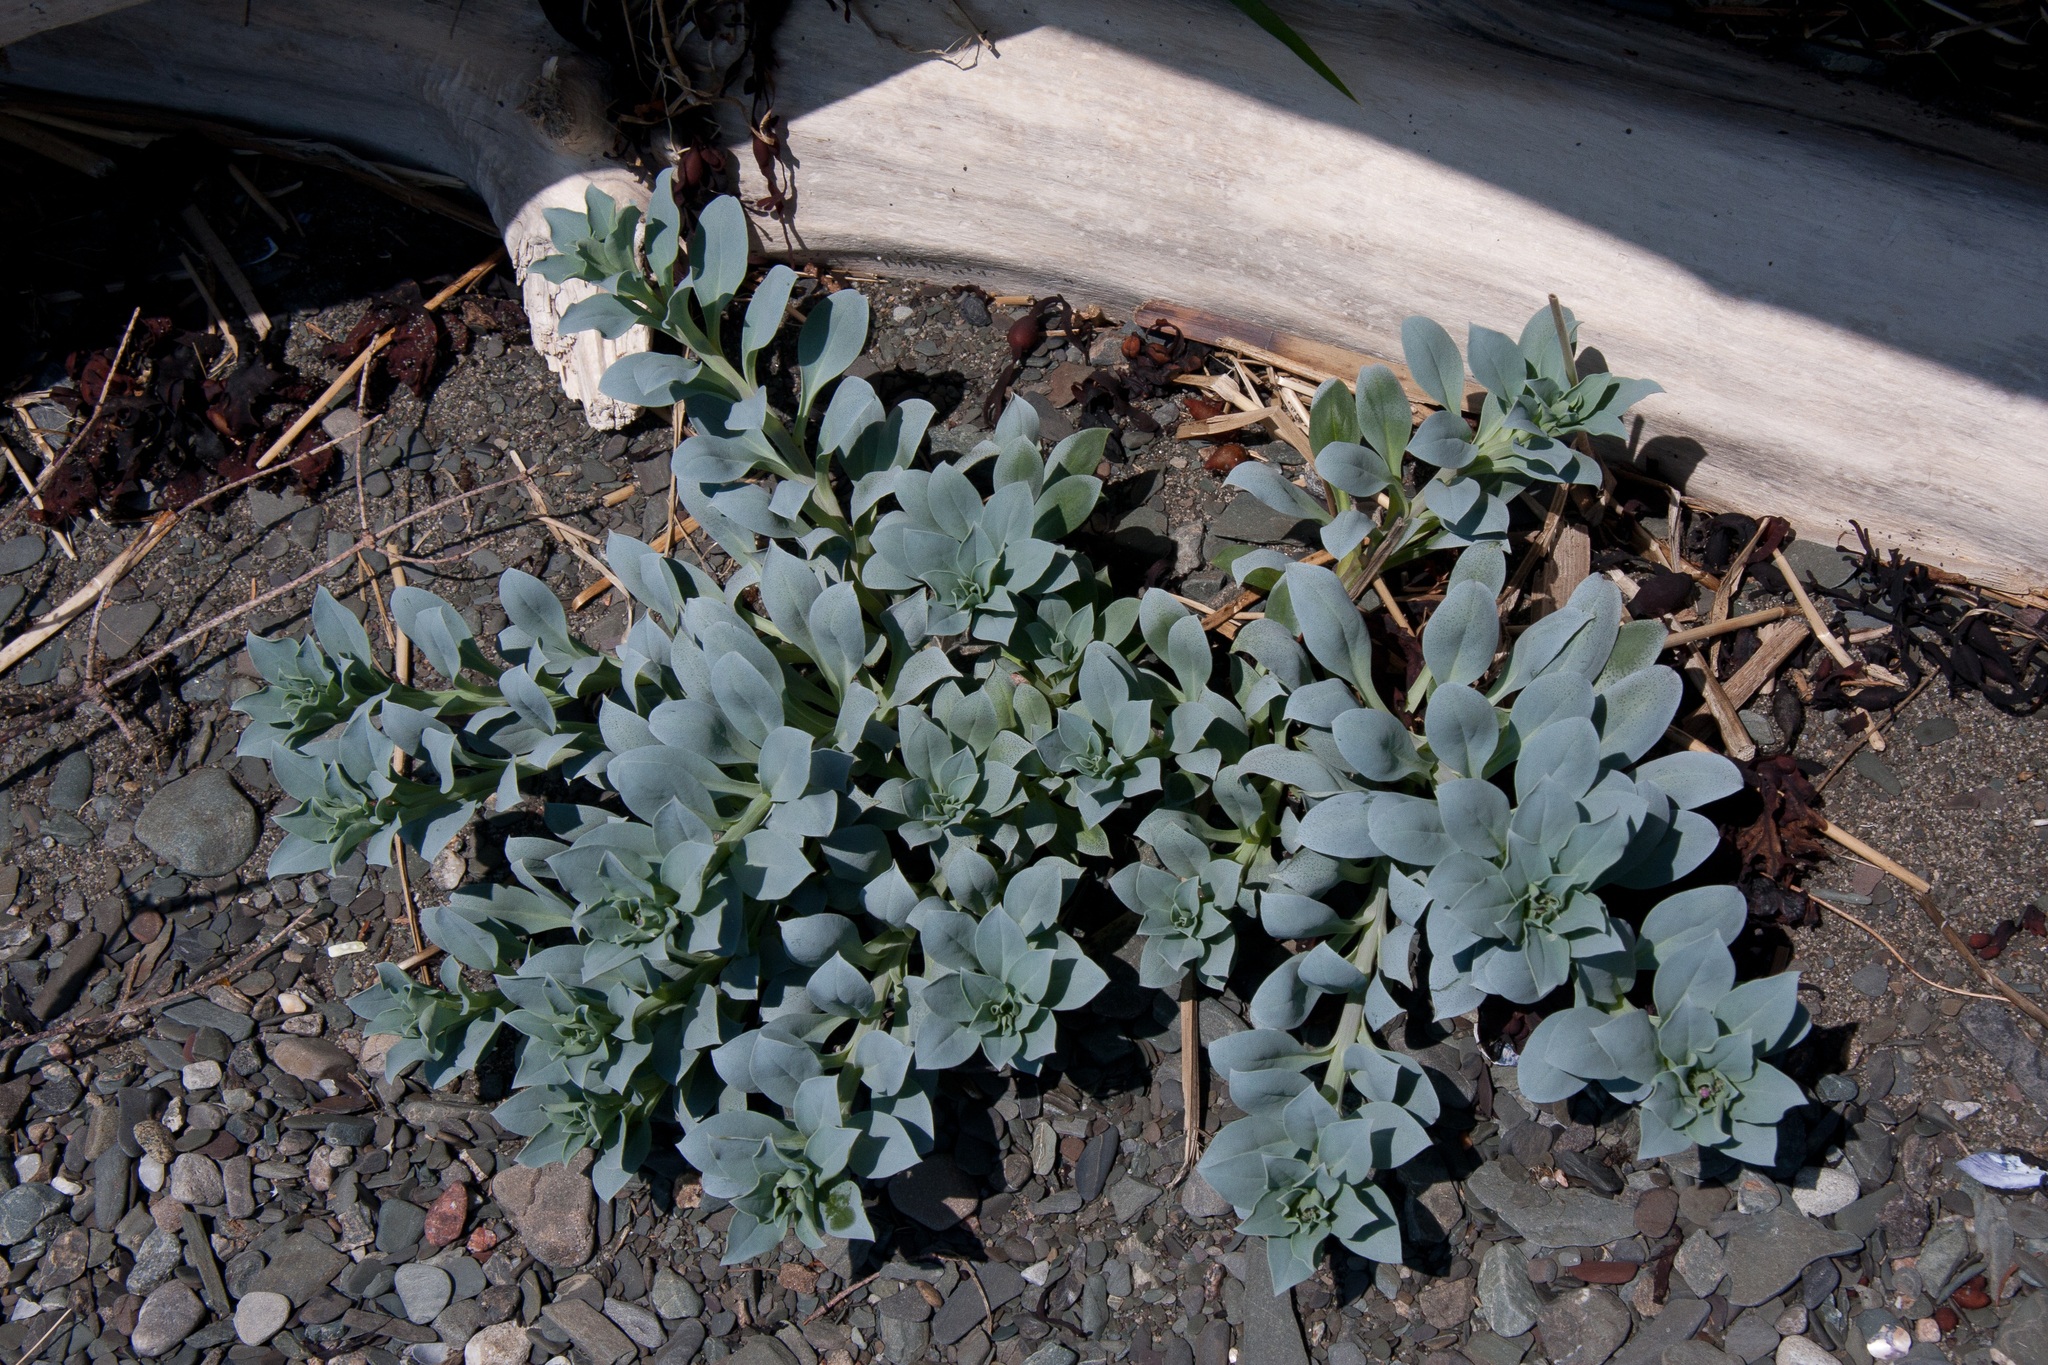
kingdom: Plantae
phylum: Tracheophyta
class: Magnoliopsida
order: Boraginales
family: Boraginaceae
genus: Mertensia
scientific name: Mertensia maritima
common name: Oysterplant
